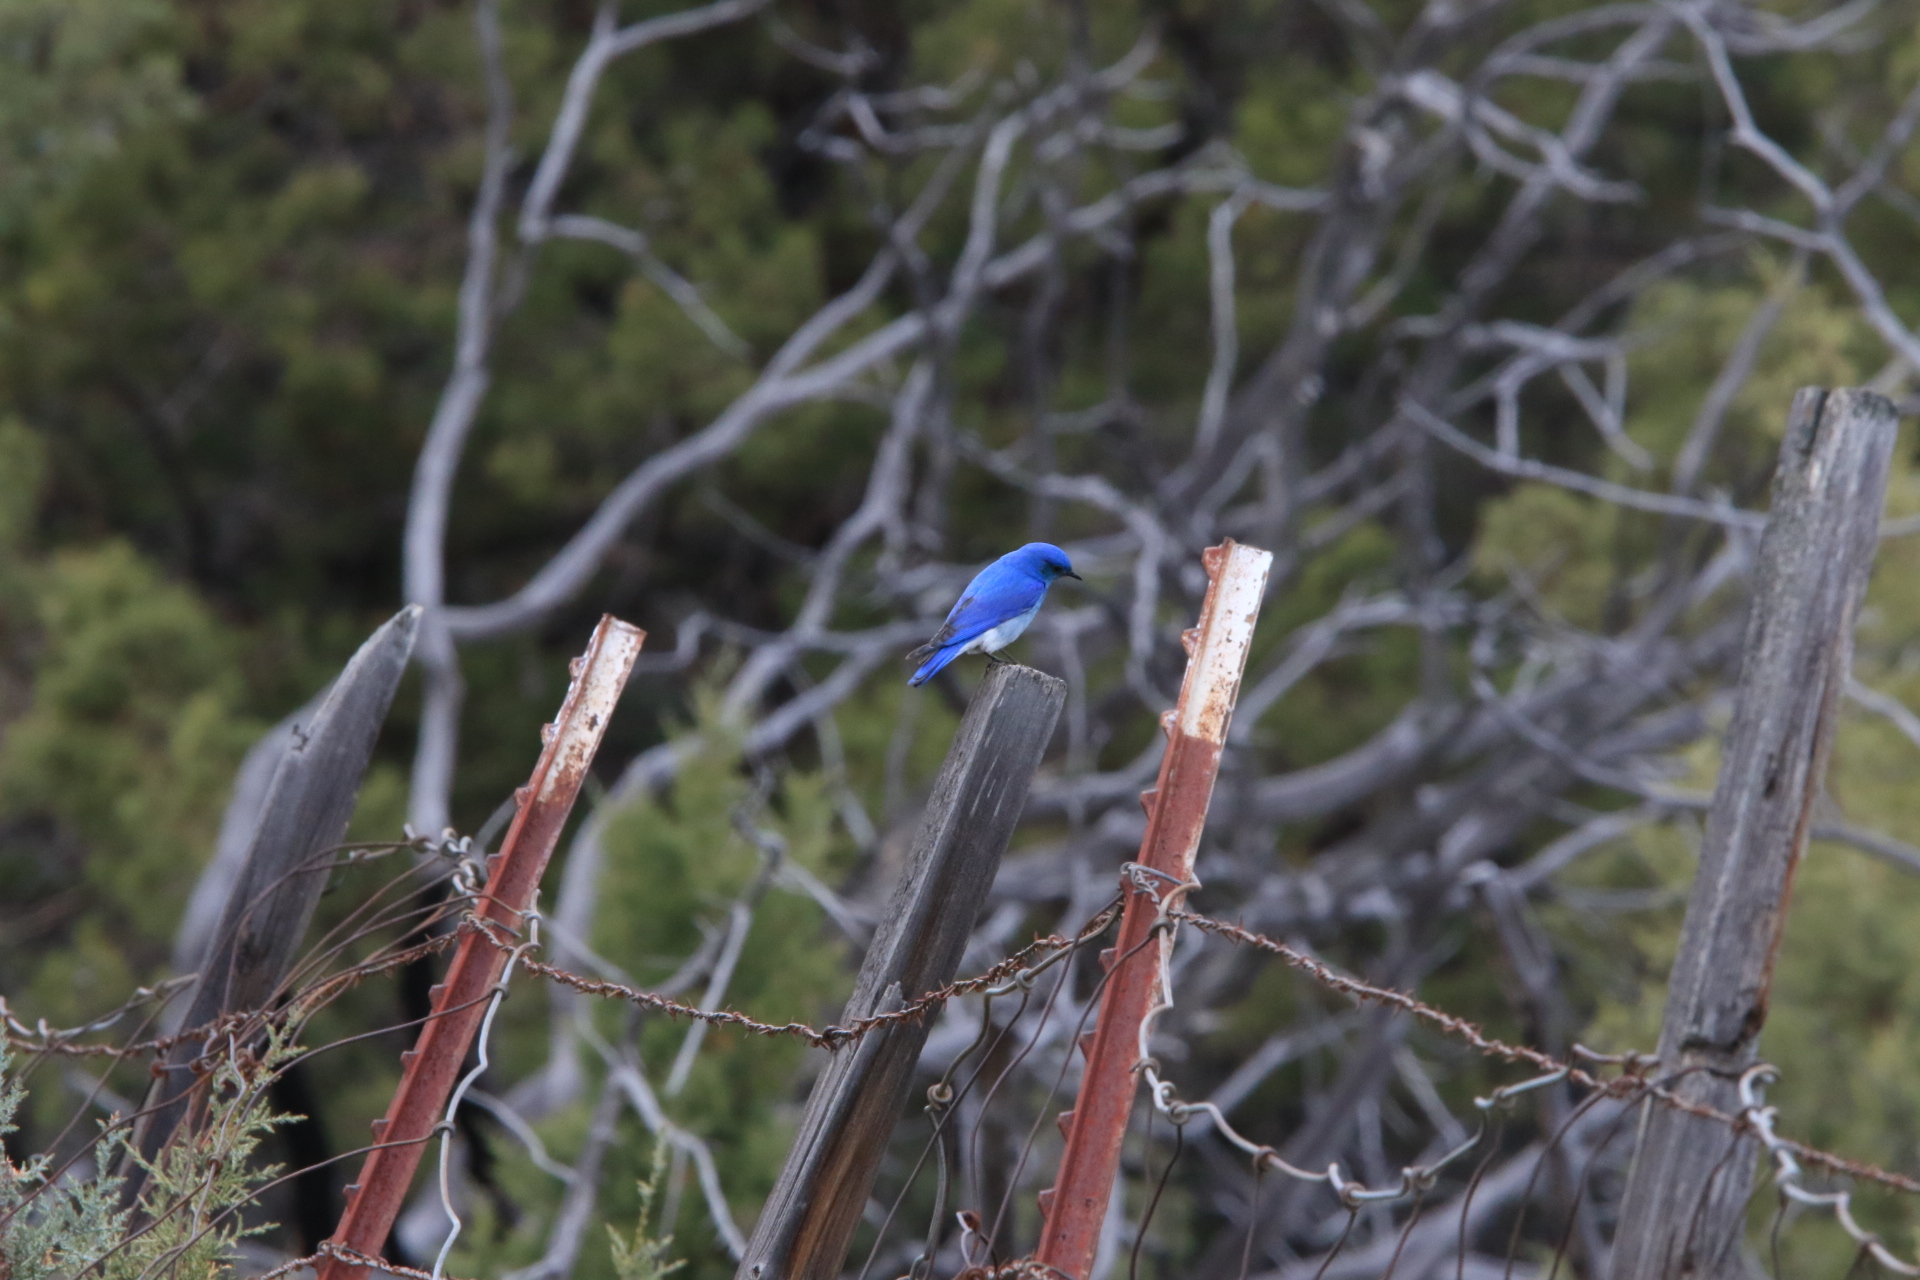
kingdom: Animalia
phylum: Chordata
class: Aves
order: Passeriformes
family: Turdidae
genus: Sialia
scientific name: Sialia currucoides
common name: Mountain bluebird
